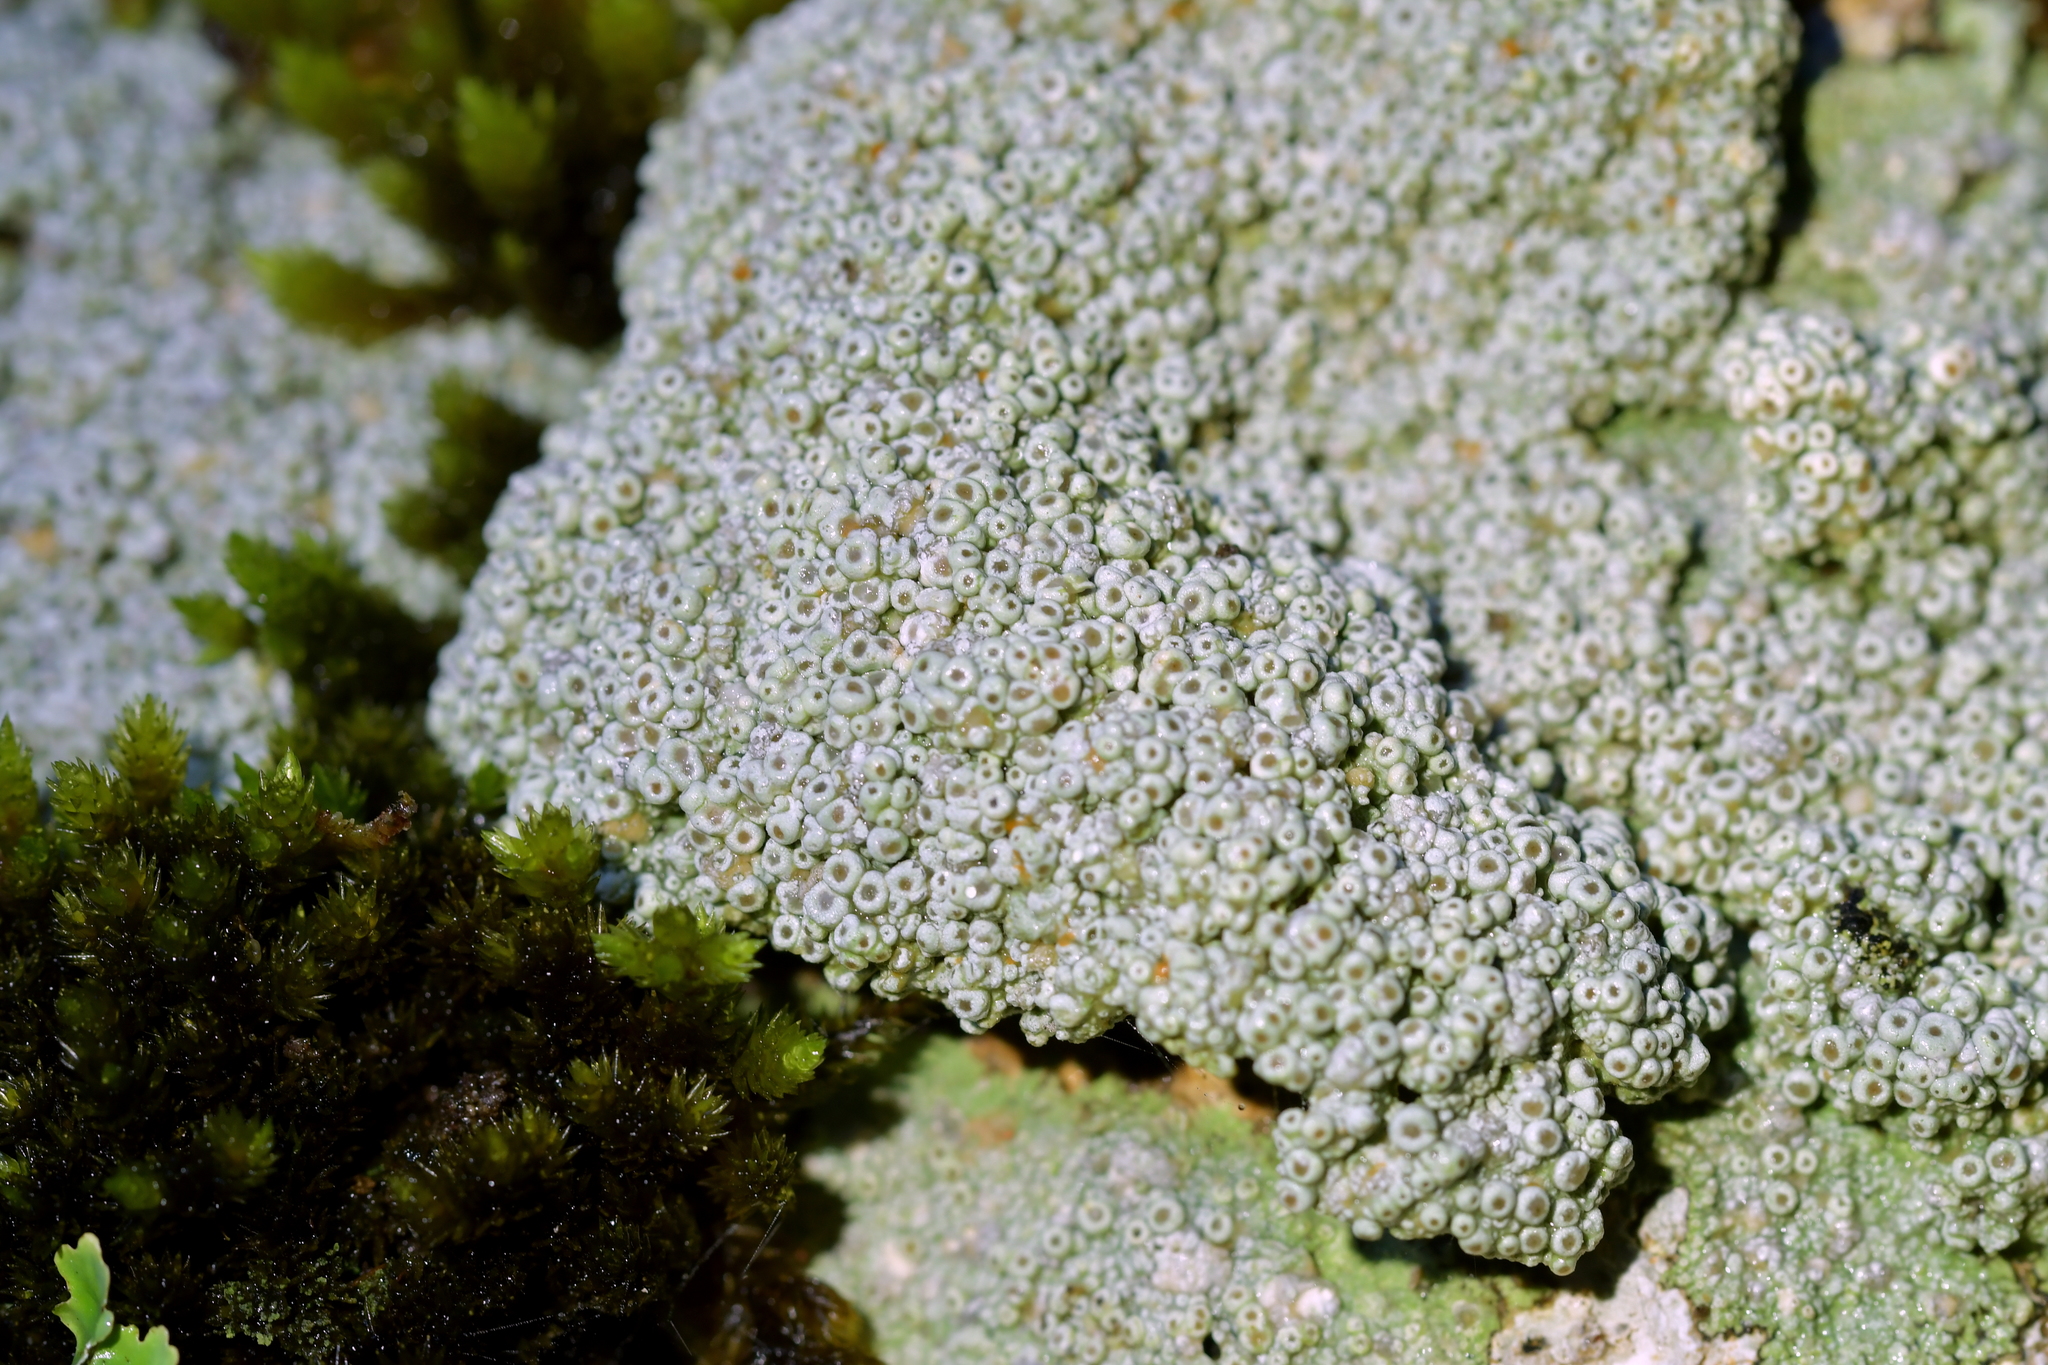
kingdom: Fungi
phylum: Ascomycota
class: Lecanoromycetes
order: Pertusariales
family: Coccotremataceae
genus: Coccotrema
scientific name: Coccotrema cucurbitula
